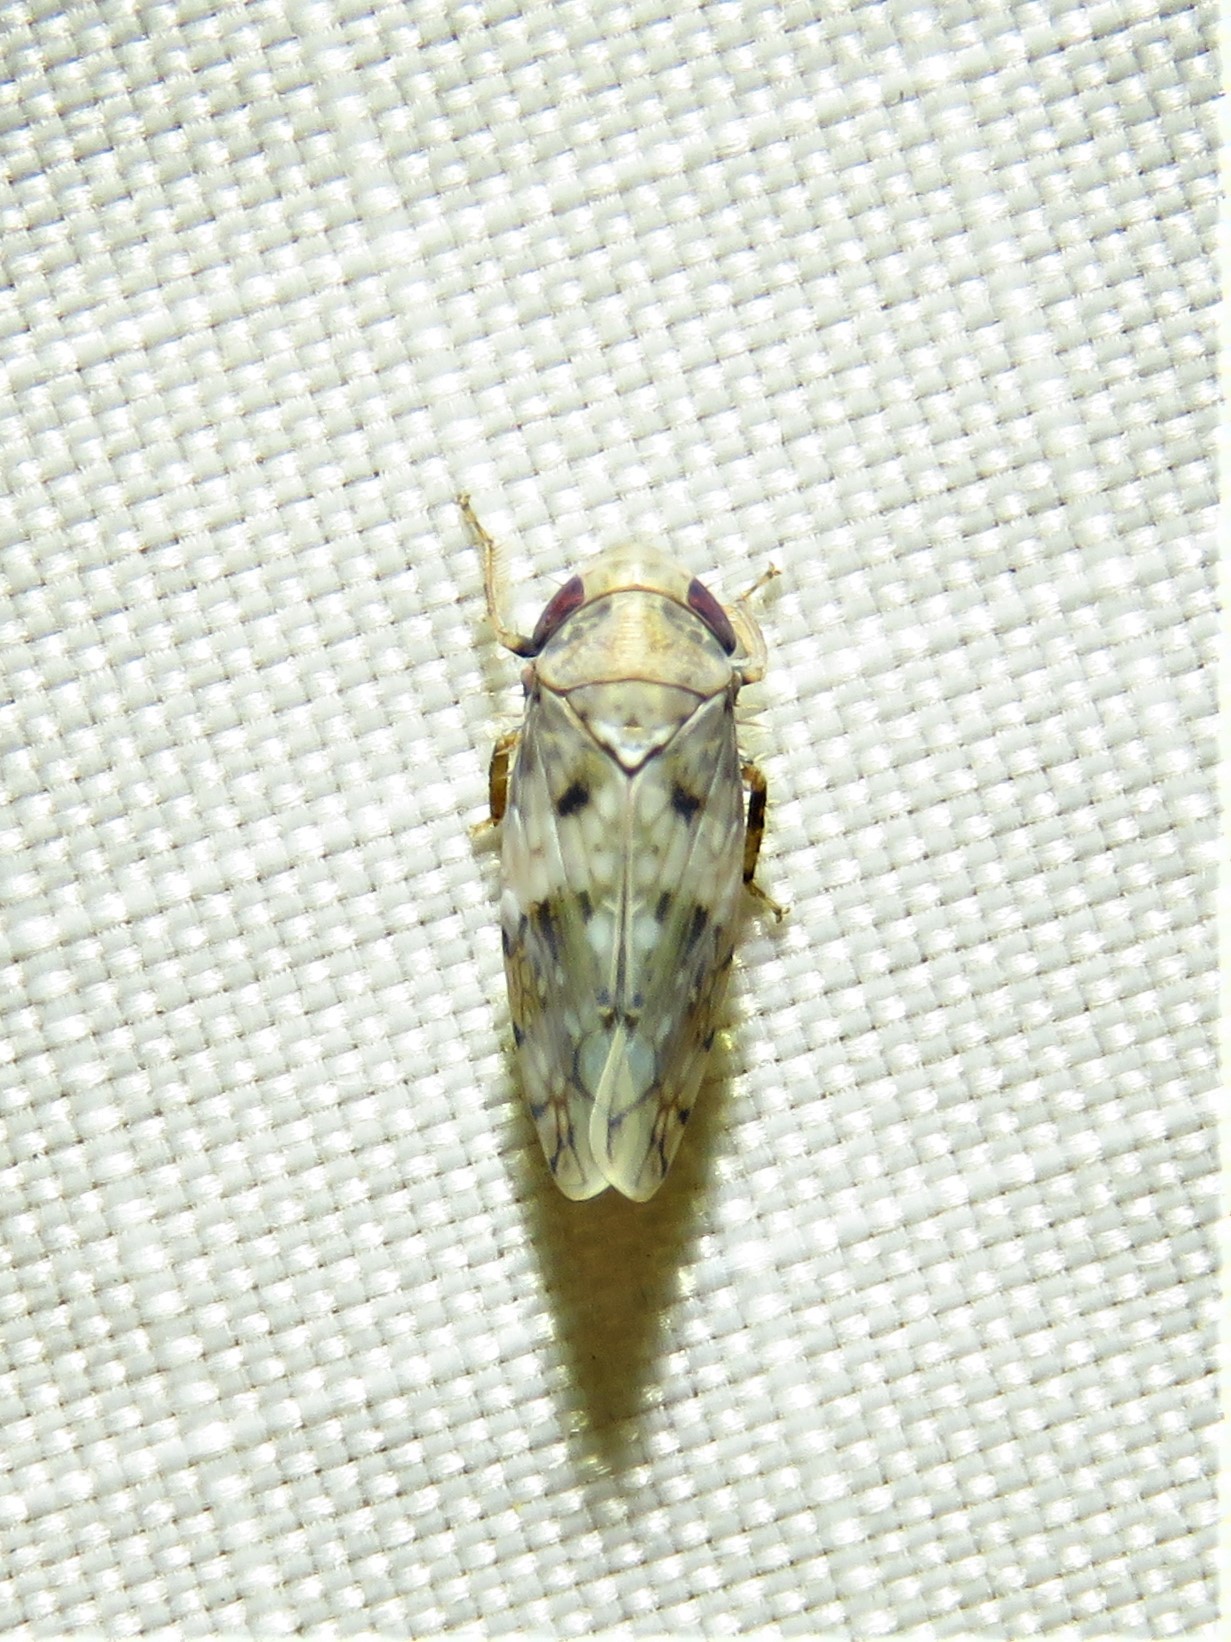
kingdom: Animalia
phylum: Arthropoda
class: Insecta
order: Hemiptera
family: Cicadellidae
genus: Menosoma
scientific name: Menosoma cinctum
